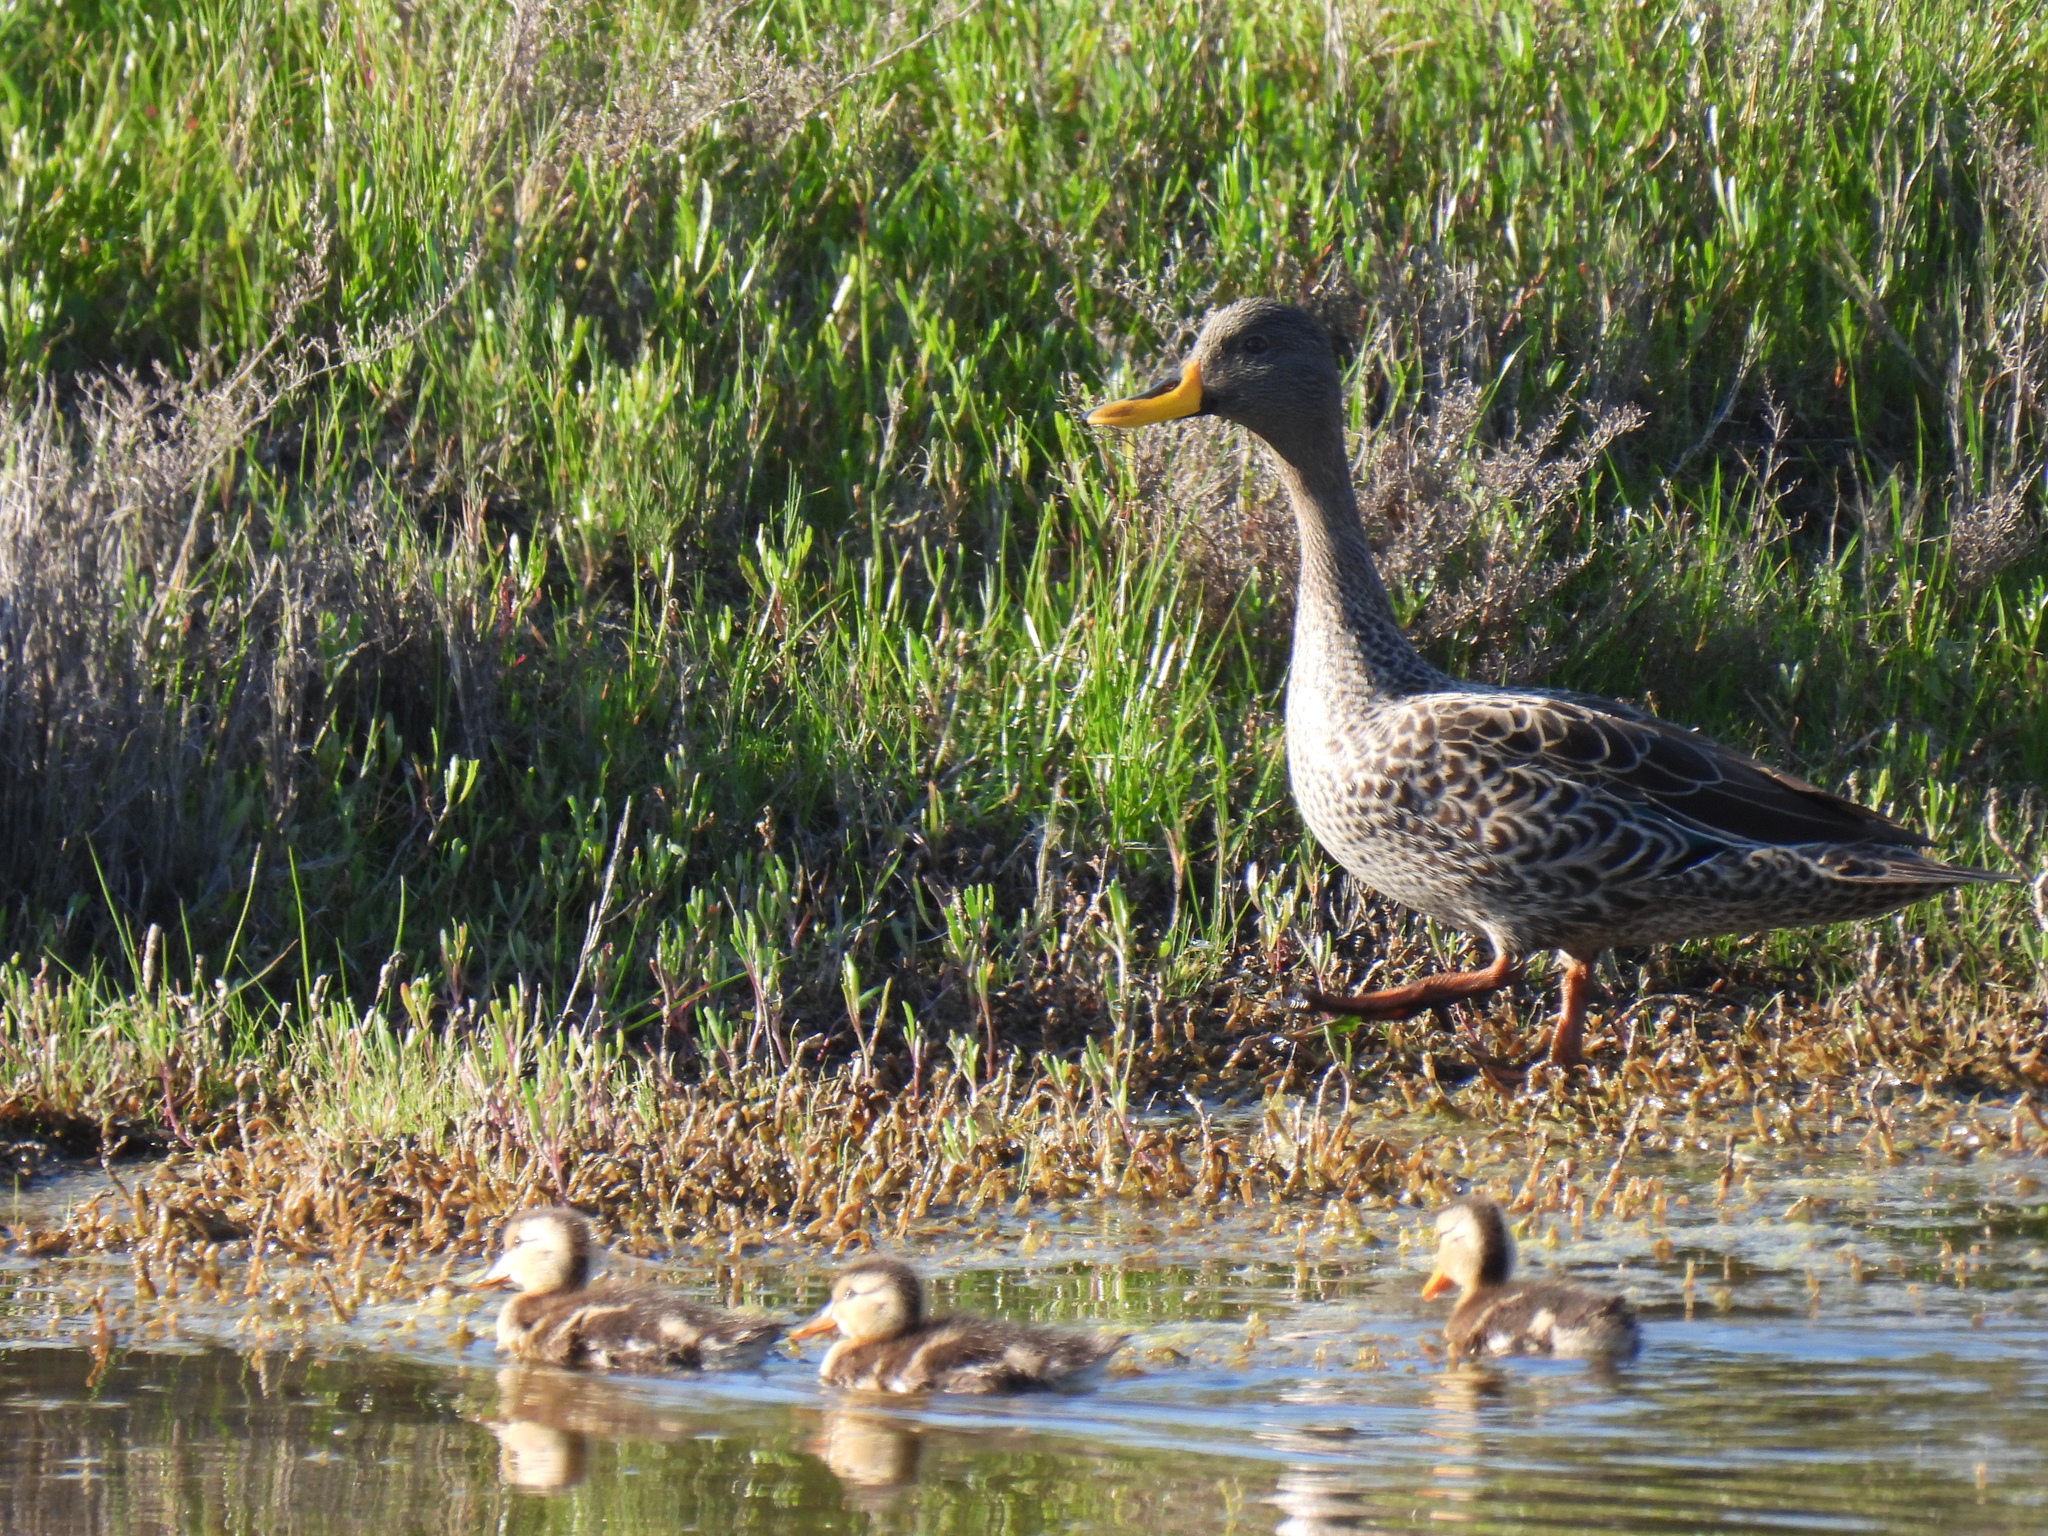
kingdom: Animalia
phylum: Chordata
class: Aves
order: Anseriformes
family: Anatidae
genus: Anas
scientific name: Anas undulata
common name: Yellow-billed duck
